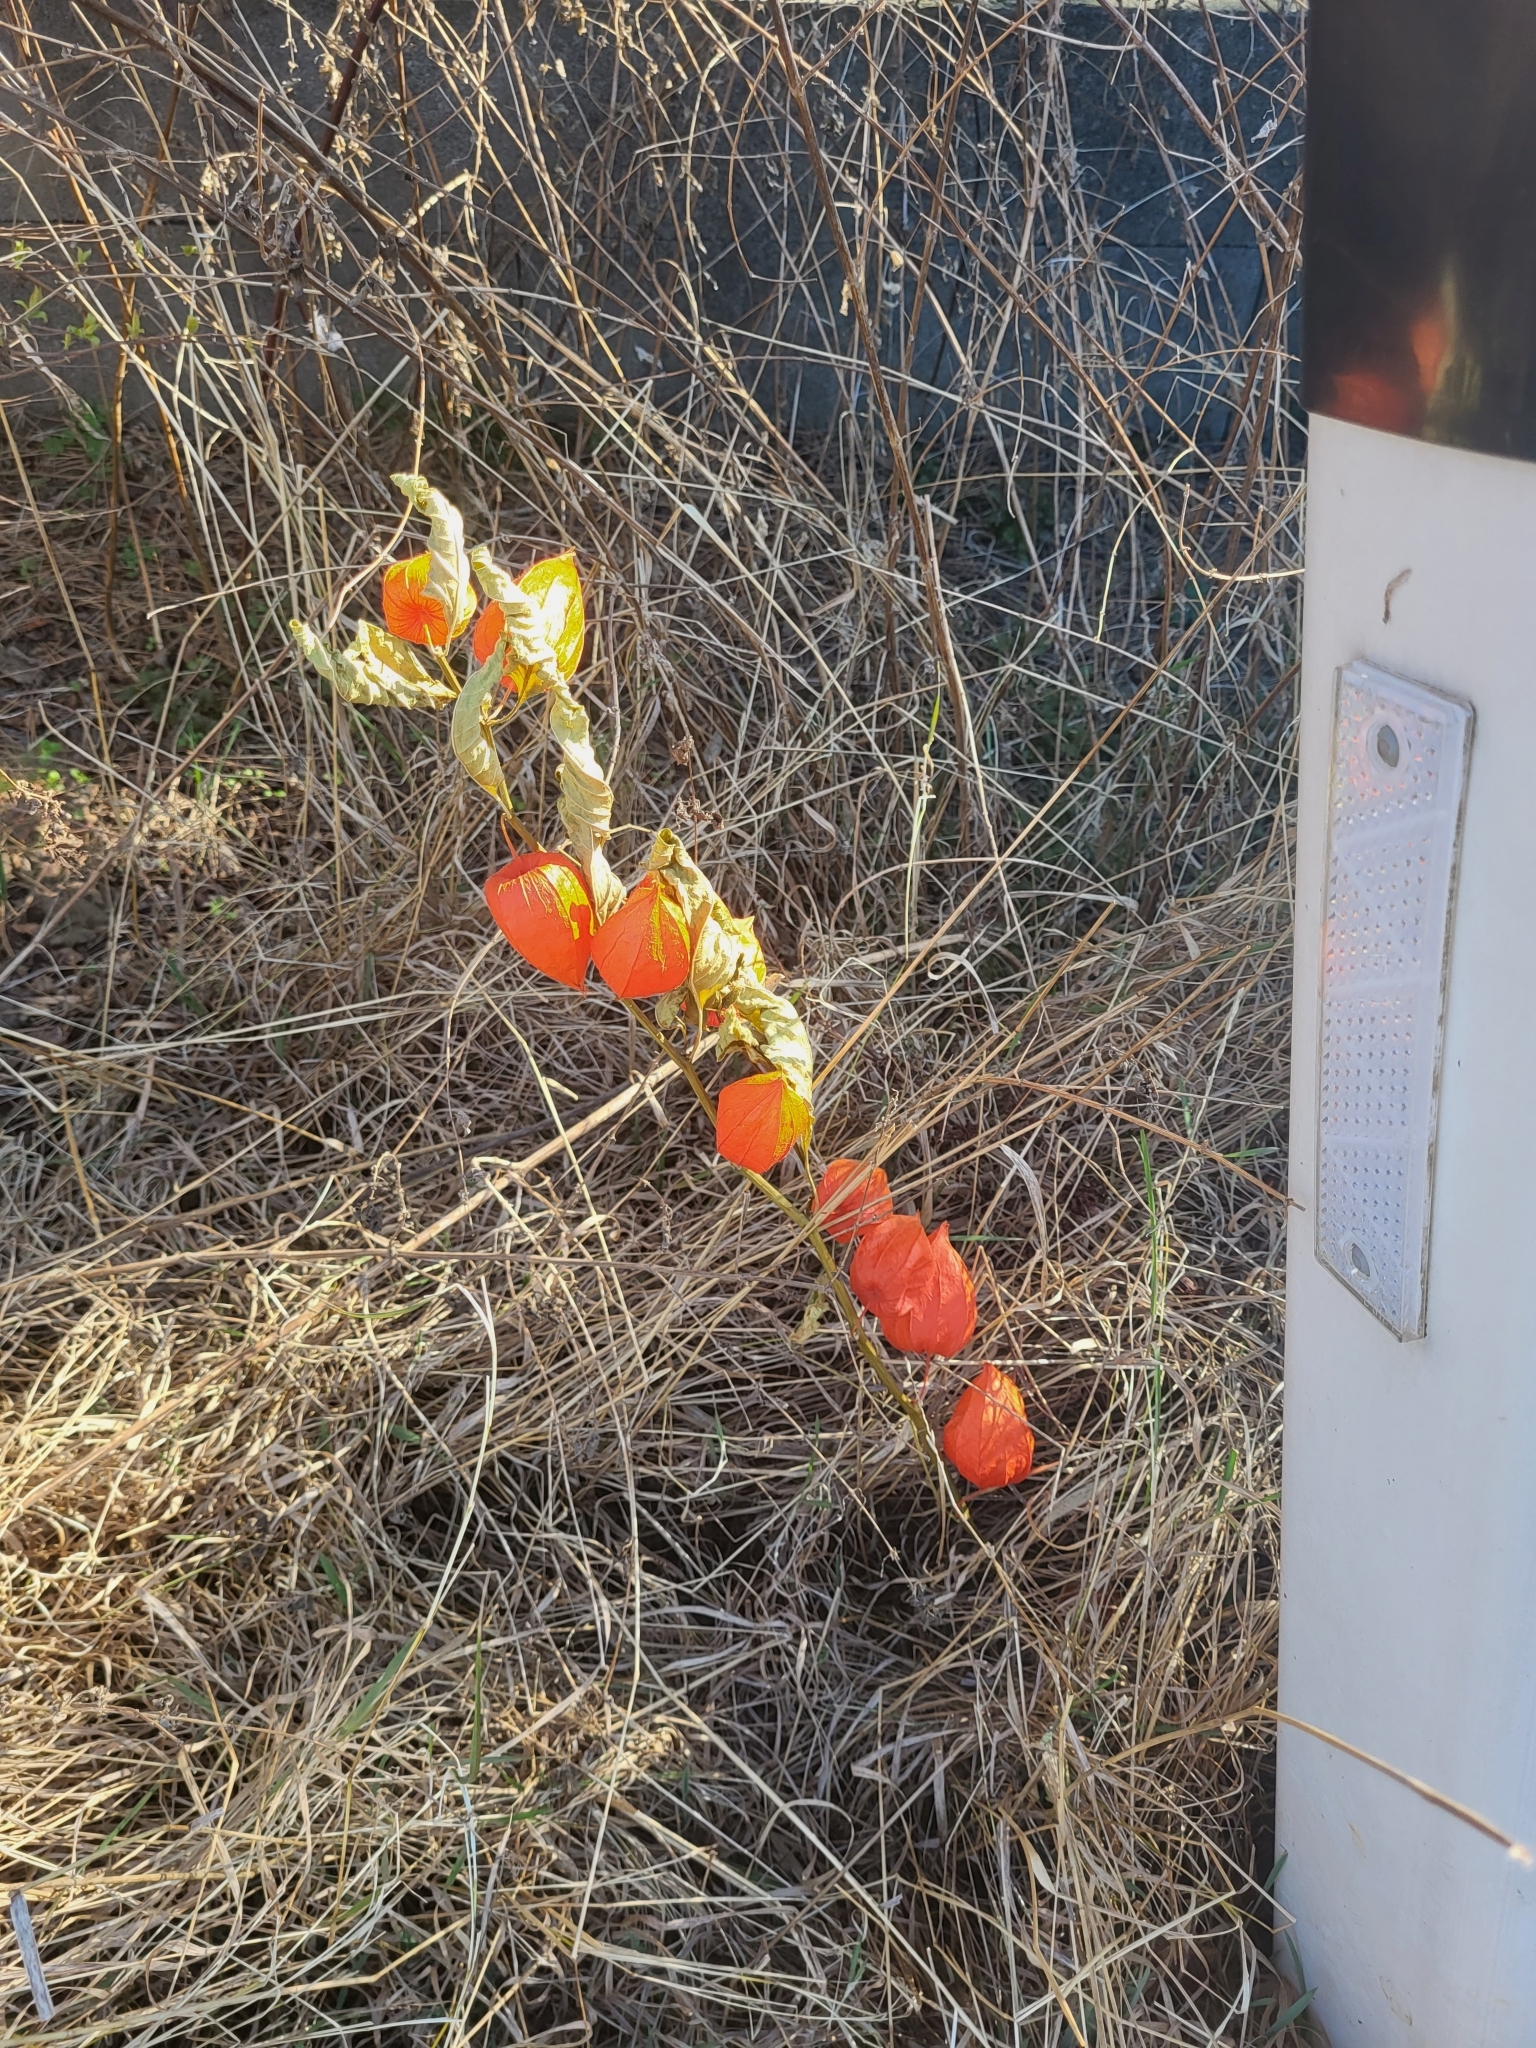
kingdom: Plantae
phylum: Tracheophyta
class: Magnoliopsida
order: Solanales
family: Solanaceae
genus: Alkekengi
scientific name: Alkekengi officinarum
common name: Japanese-lantern
